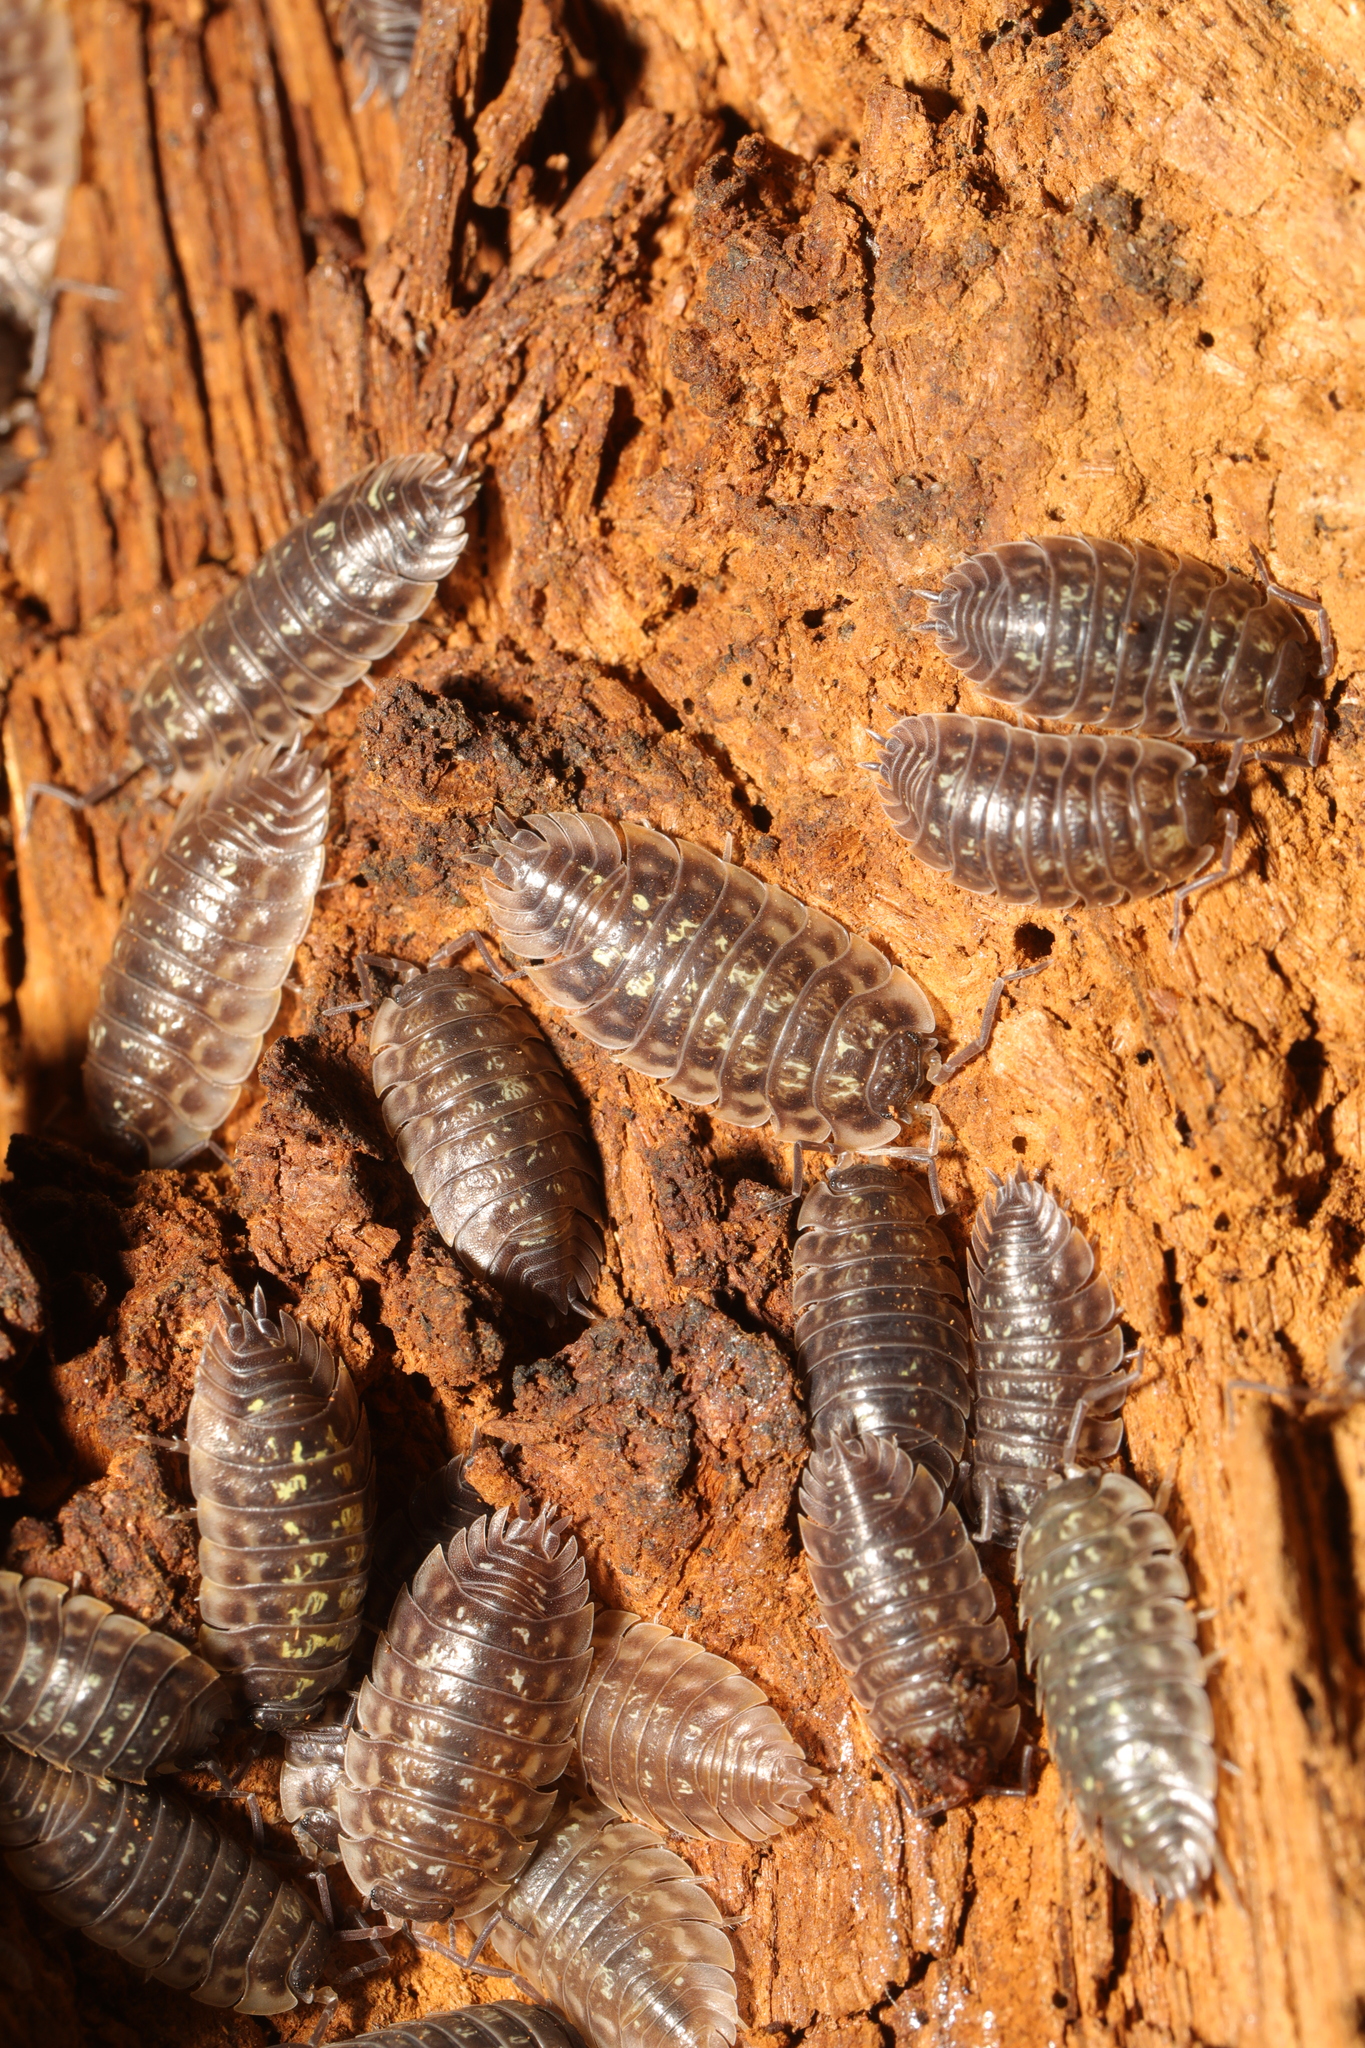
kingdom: Animalia
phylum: Arthropoda
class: Malacostraca
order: Isopoda
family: Oniscidae
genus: Oniscus
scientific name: Oniscus asellus
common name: Common shiny woodlouse
